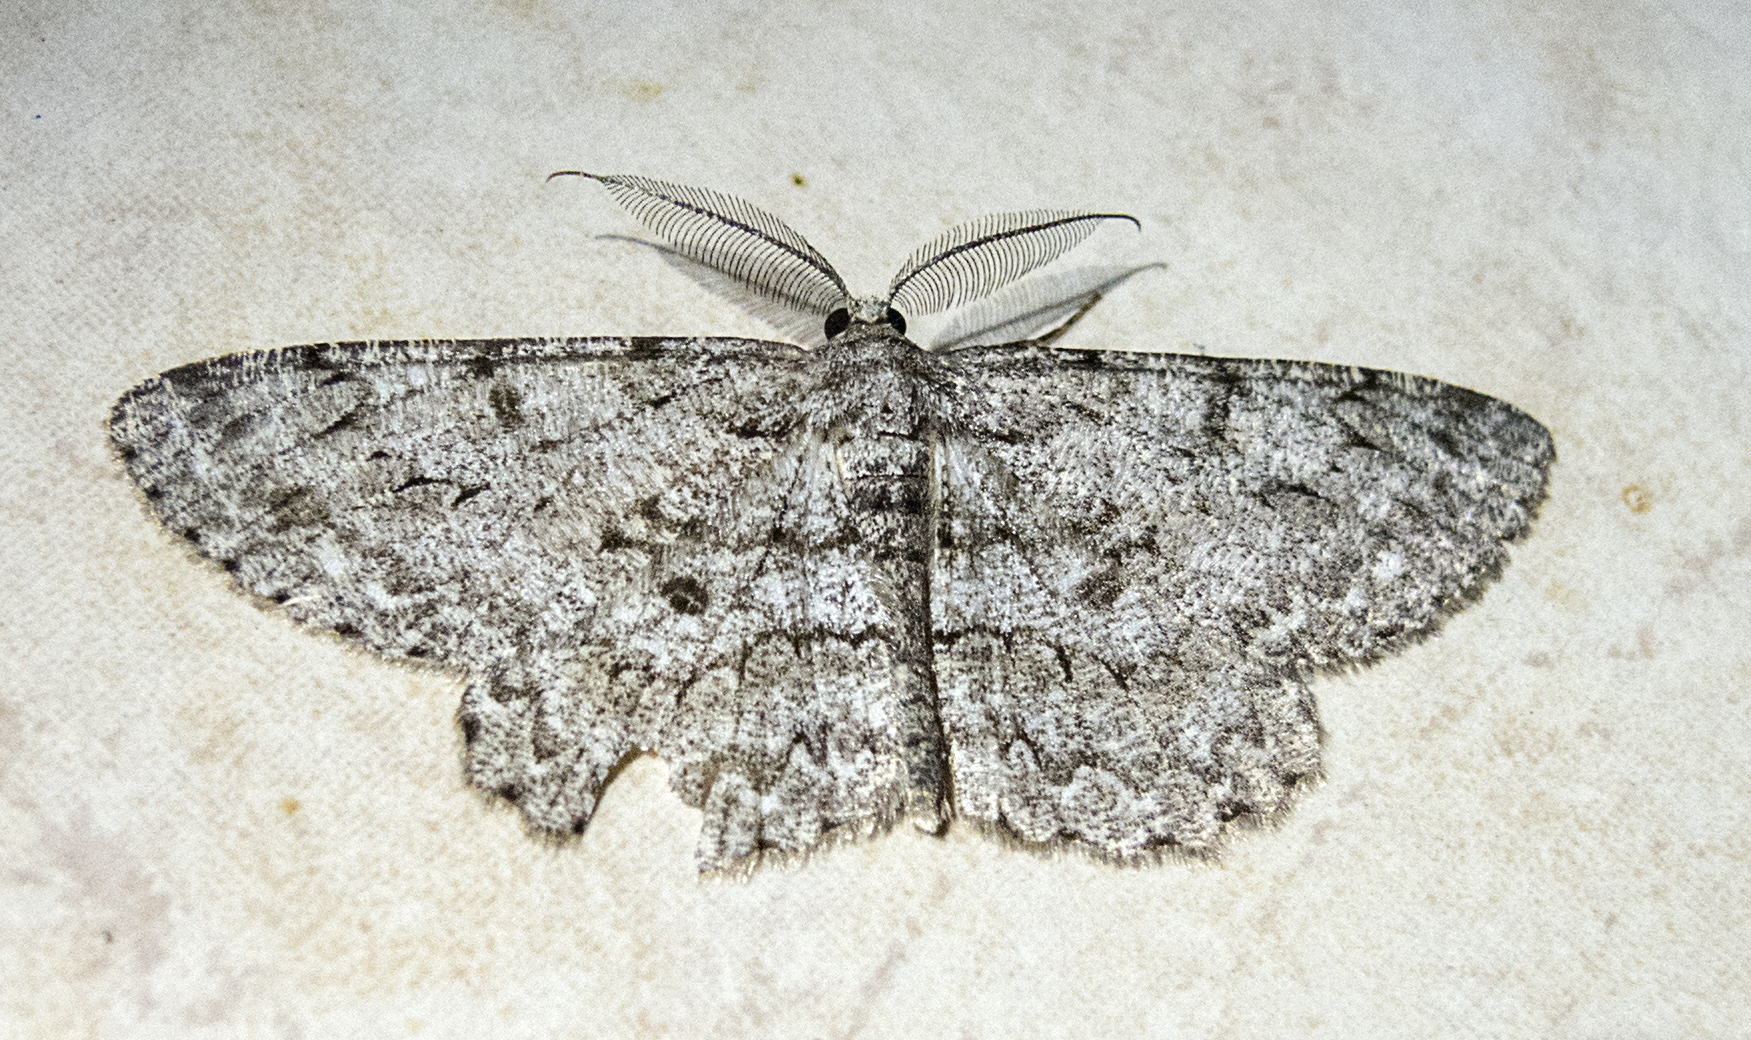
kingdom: Animalia
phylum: Arthropoda
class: Insecta
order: Lepidoptera
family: Geometridae
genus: Hypomecis
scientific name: Hypomecis punctinalis
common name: Pale oak beauty
